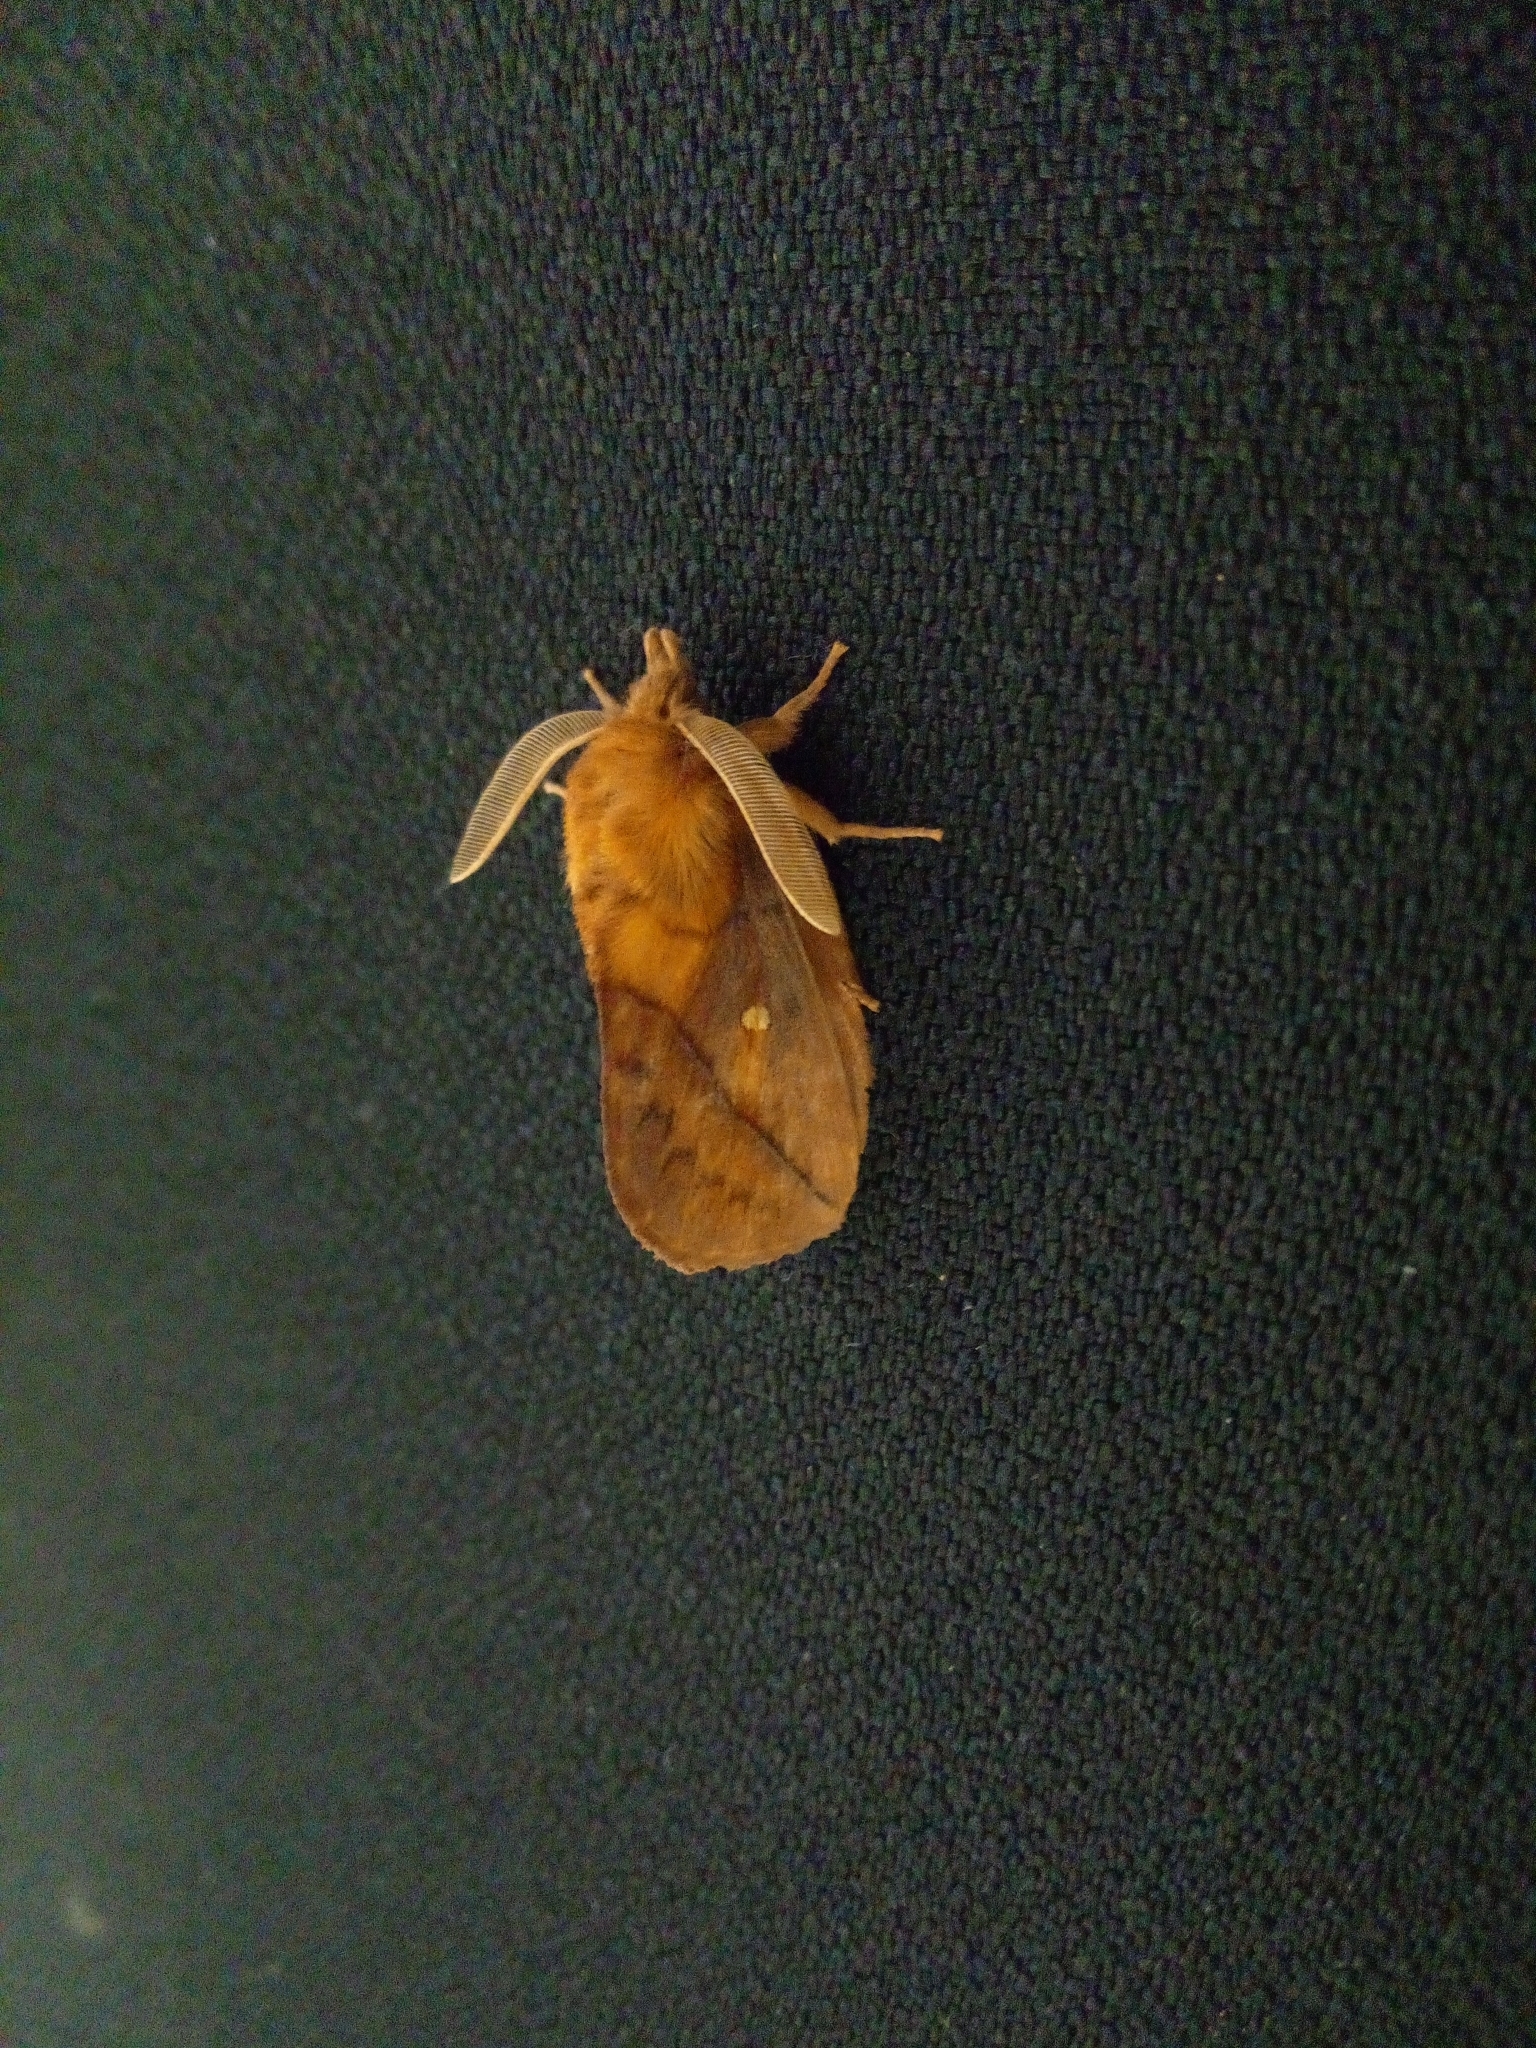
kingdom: Animalia
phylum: Arthropoda
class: Insecta
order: Lepidoptera
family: Lasiocampidae
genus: Euthrix
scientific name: Euthrix potatoria
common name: Drinker
